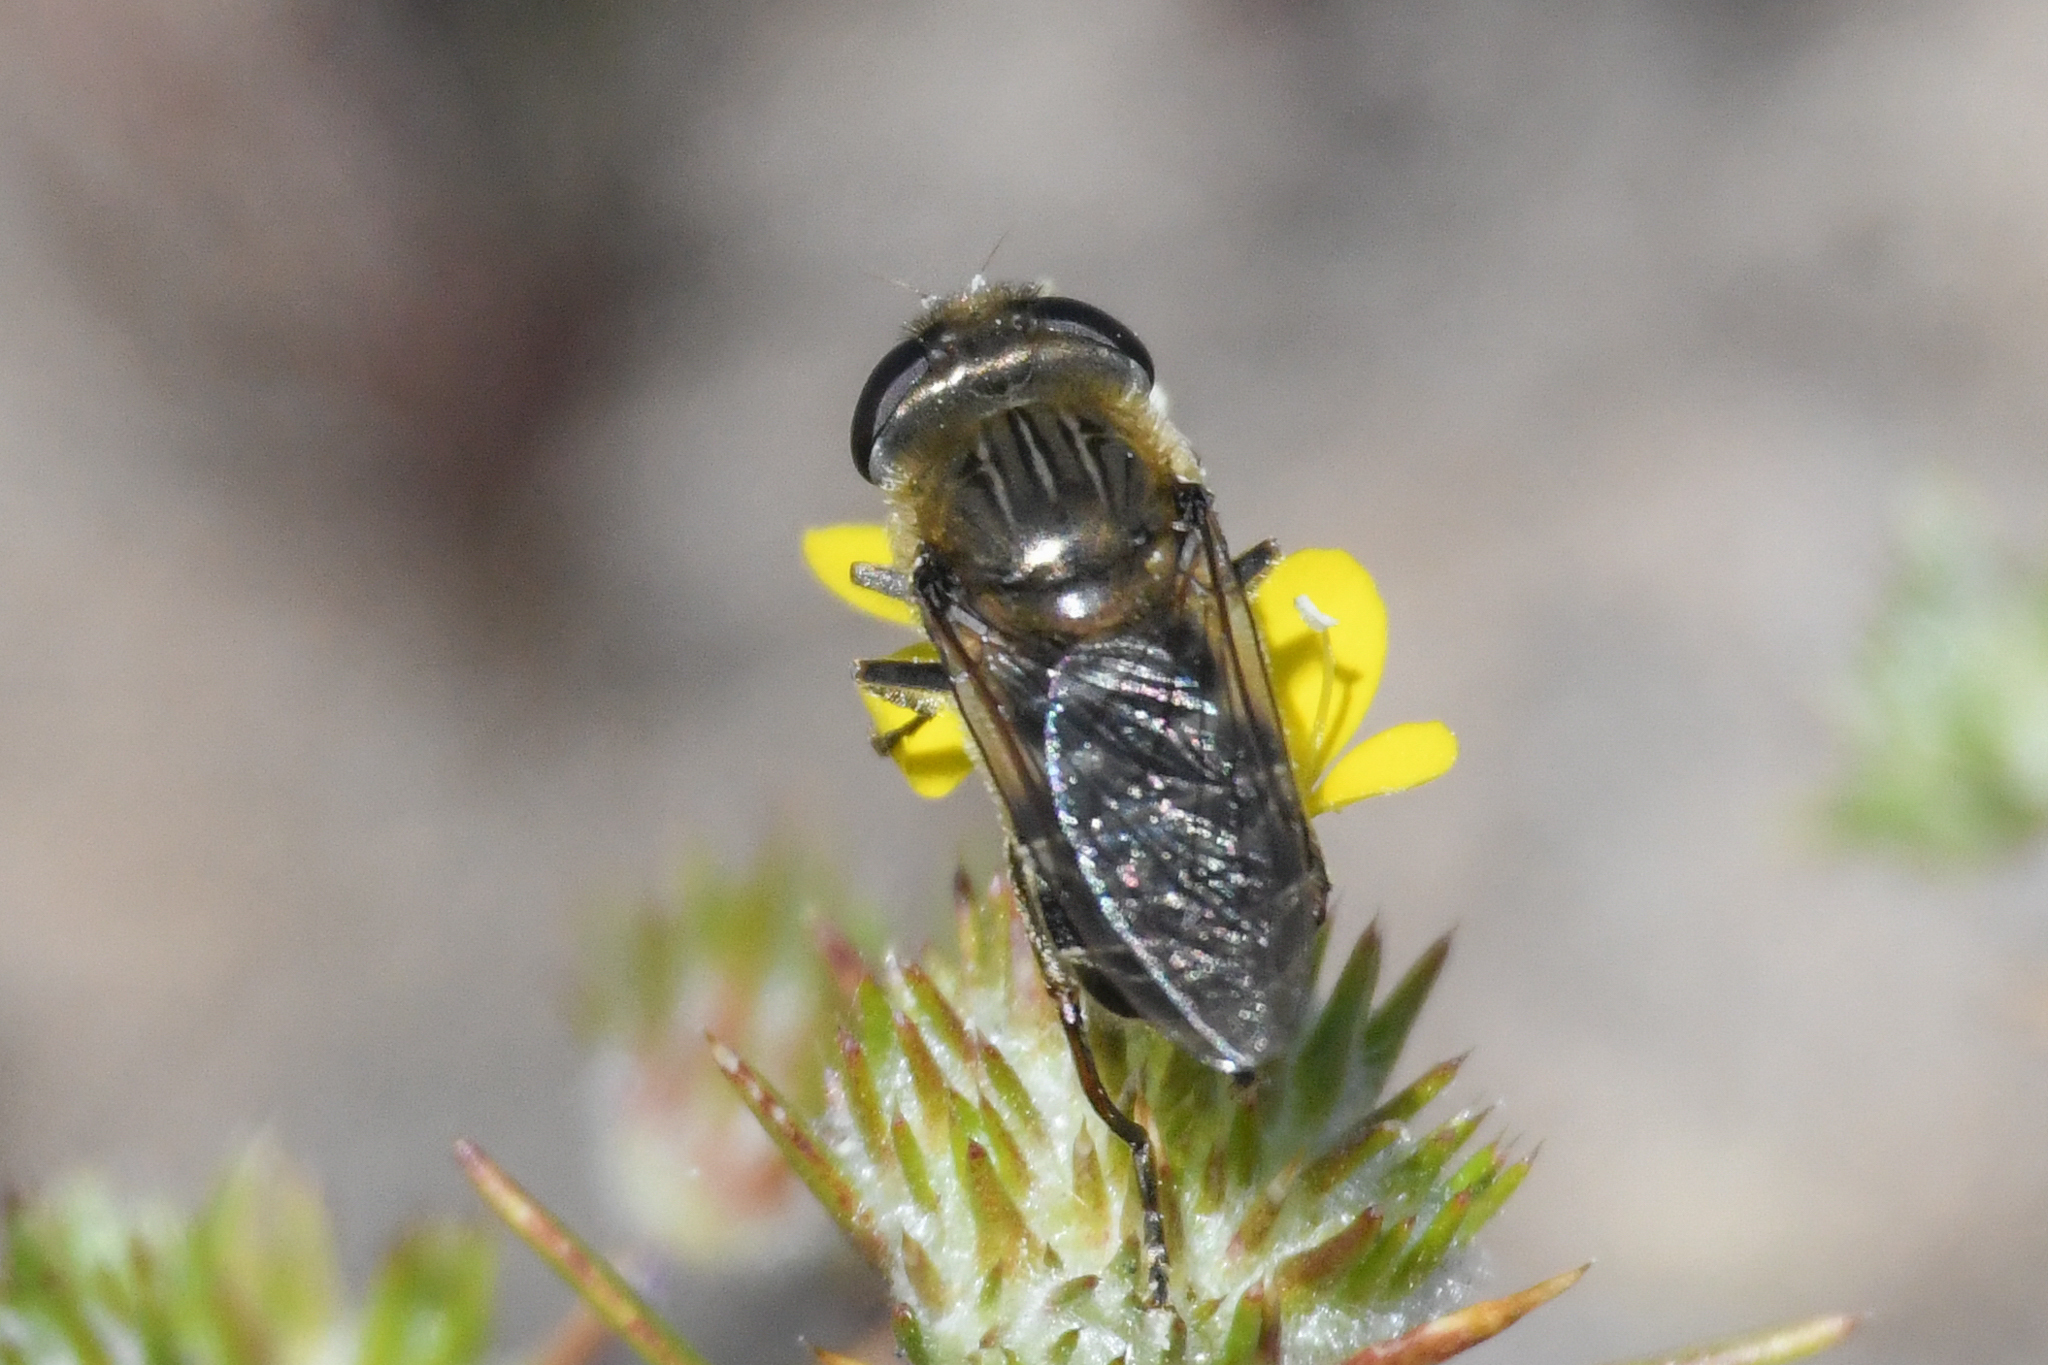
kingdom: Animalia
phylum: Arthropoda
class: Insecta
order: Diptera
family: Syrphidae
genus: Asemosyrphus
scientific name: Asemosyrphus polygrammus
